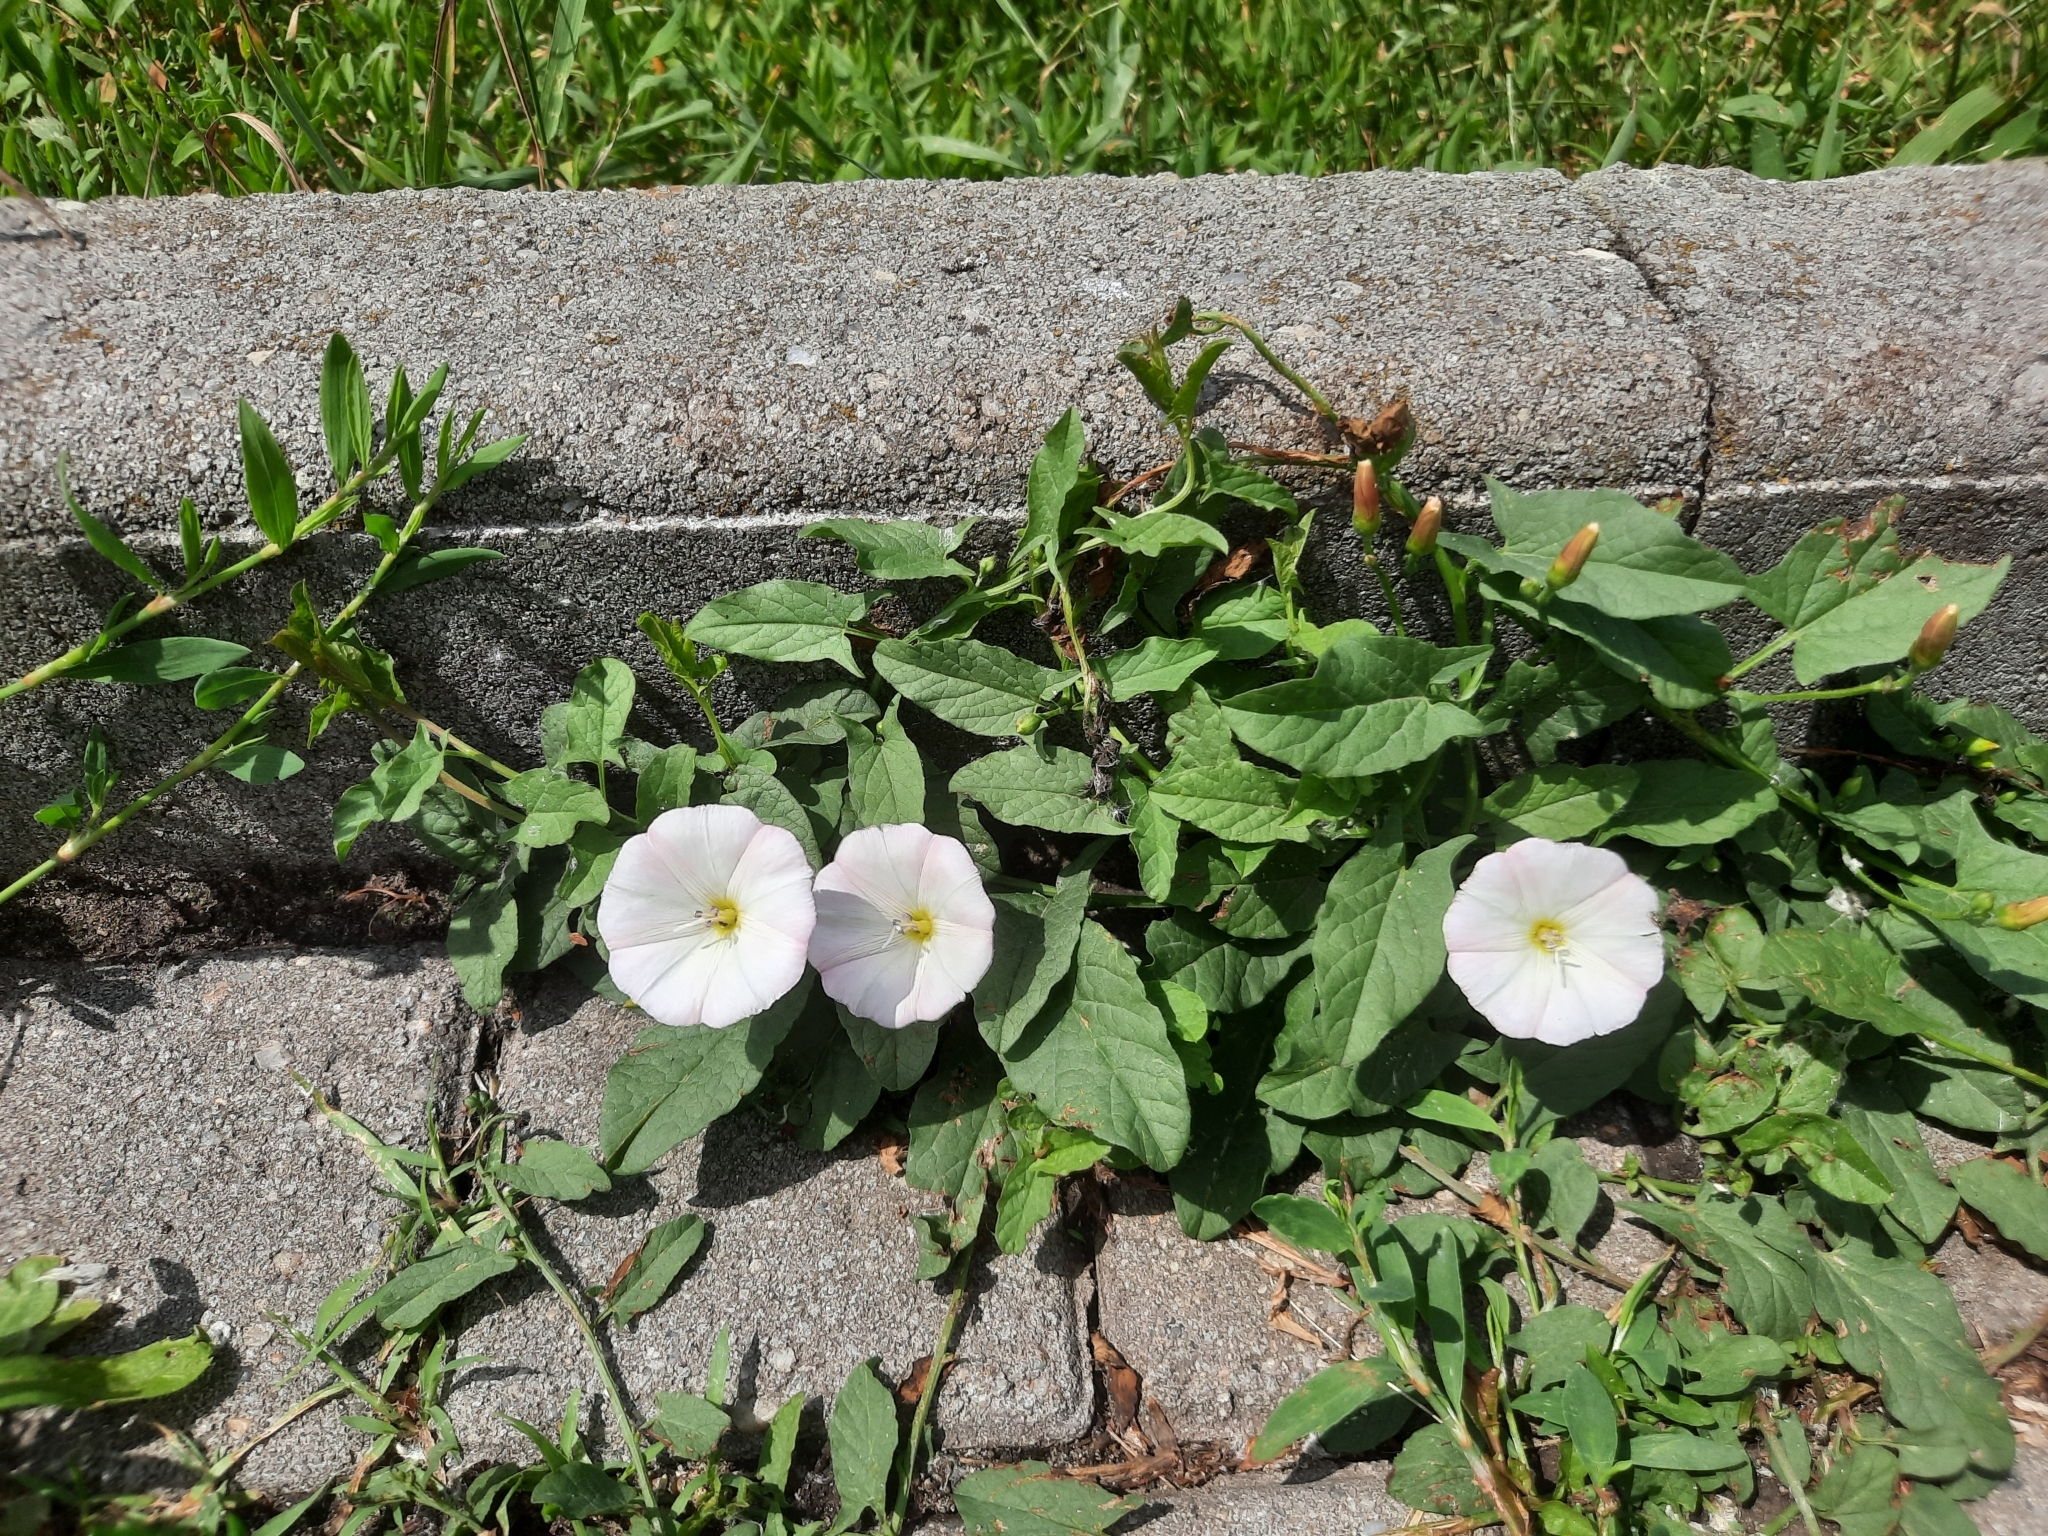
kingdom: Plantae
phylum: Tracheophyta
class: Magnoliopsida
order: Solanales
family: Convolvulaceae
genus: Convolvulus
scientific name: Convolvulus arvensis
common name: Field bindweed
